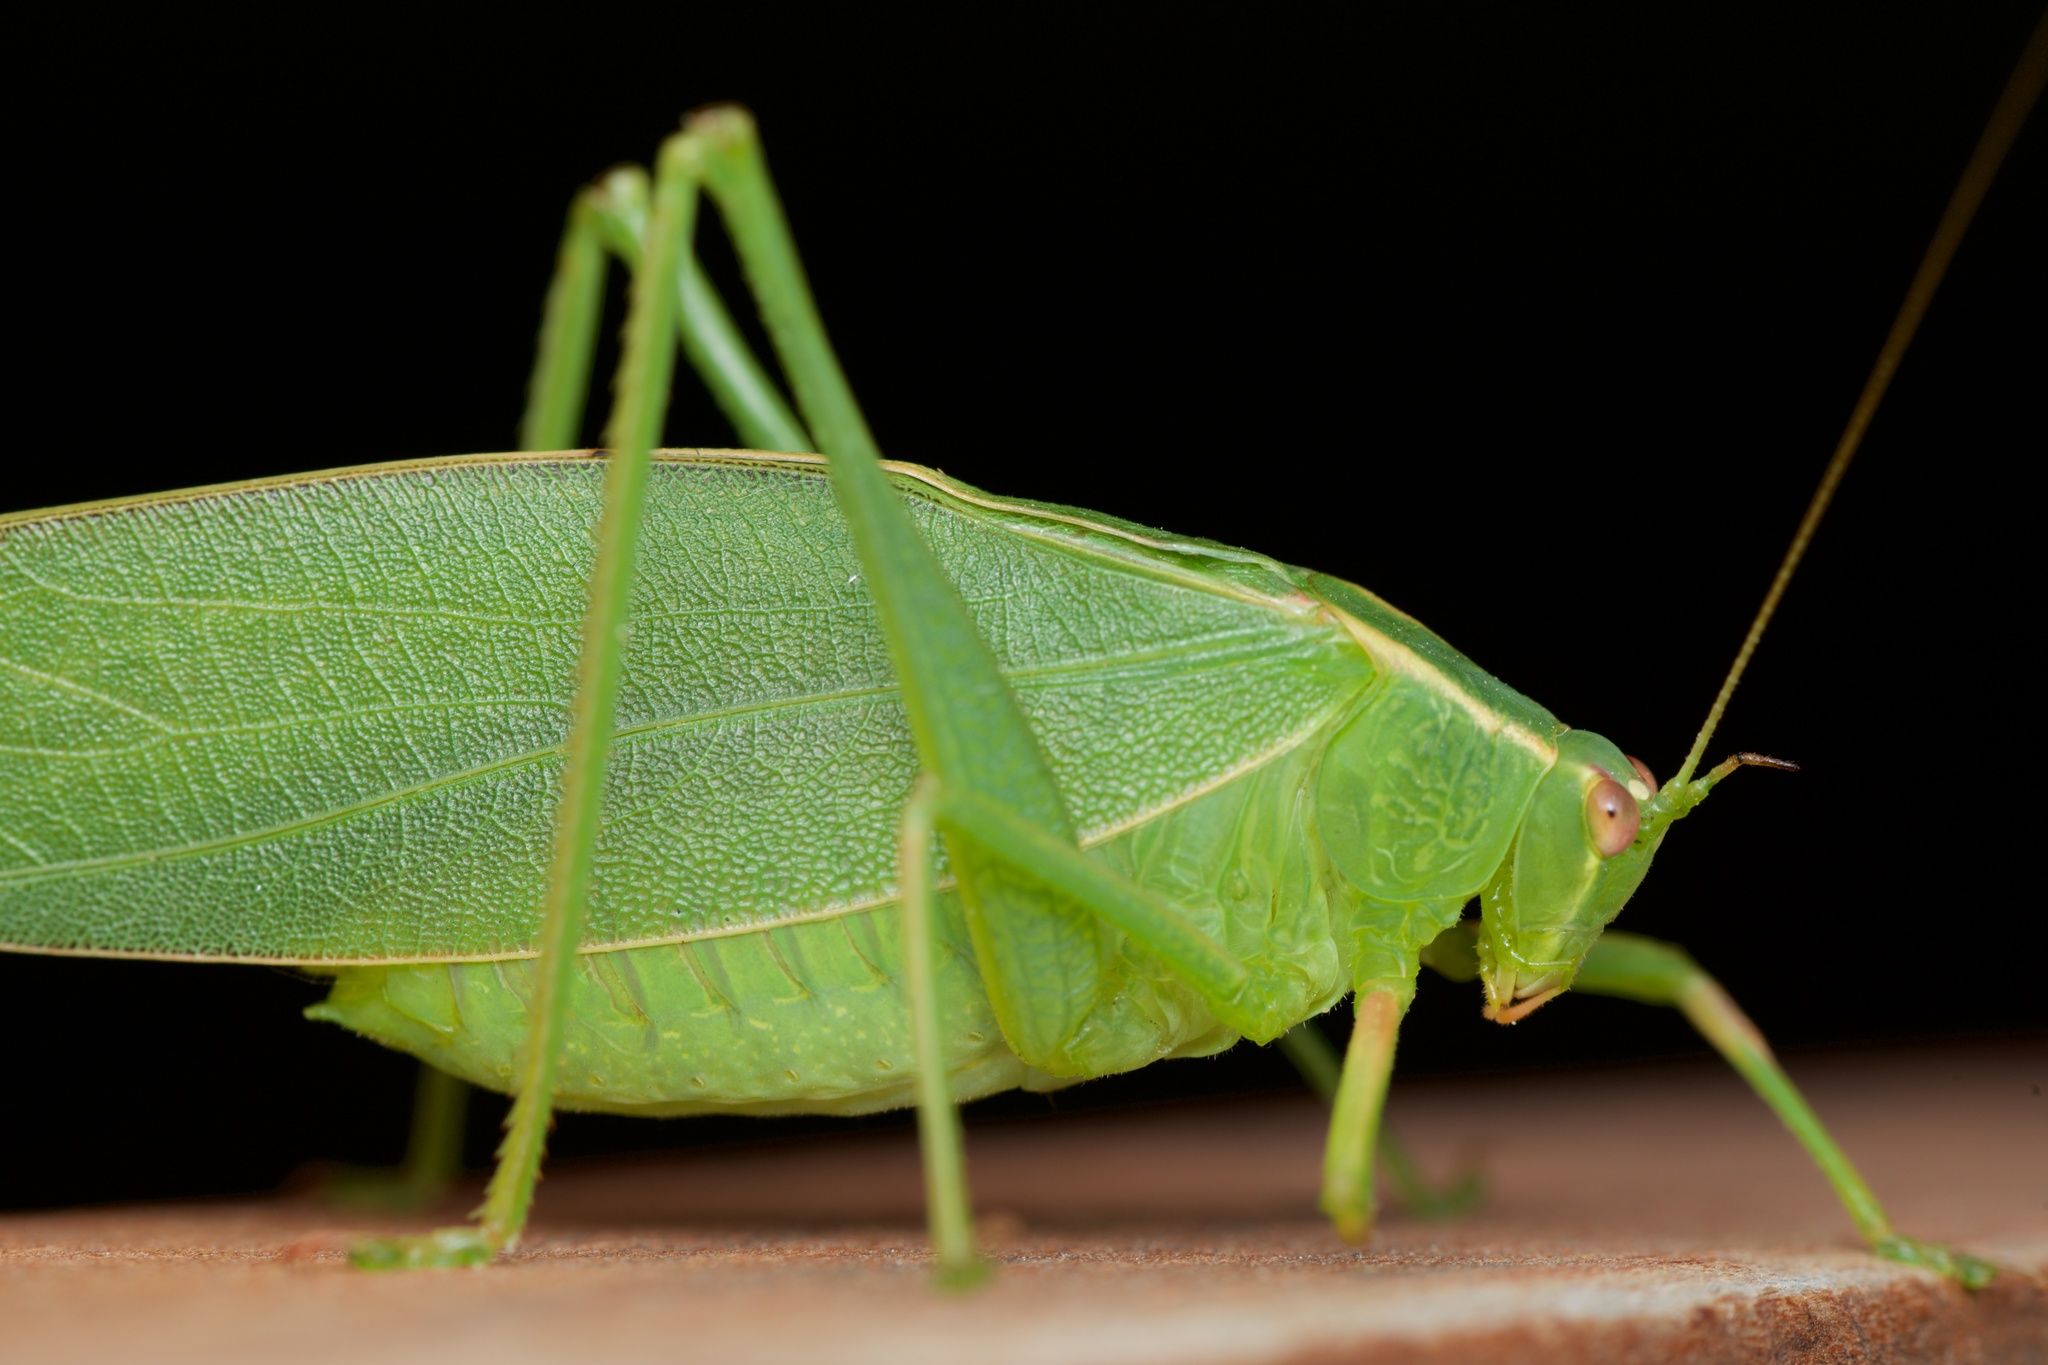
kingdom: Animalia
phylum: Arthropoda
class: Insecta
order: Orthoptera
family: Tettigoniidae
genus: Caedicia
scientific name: Caedicia simplex
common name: Common garden katydid
